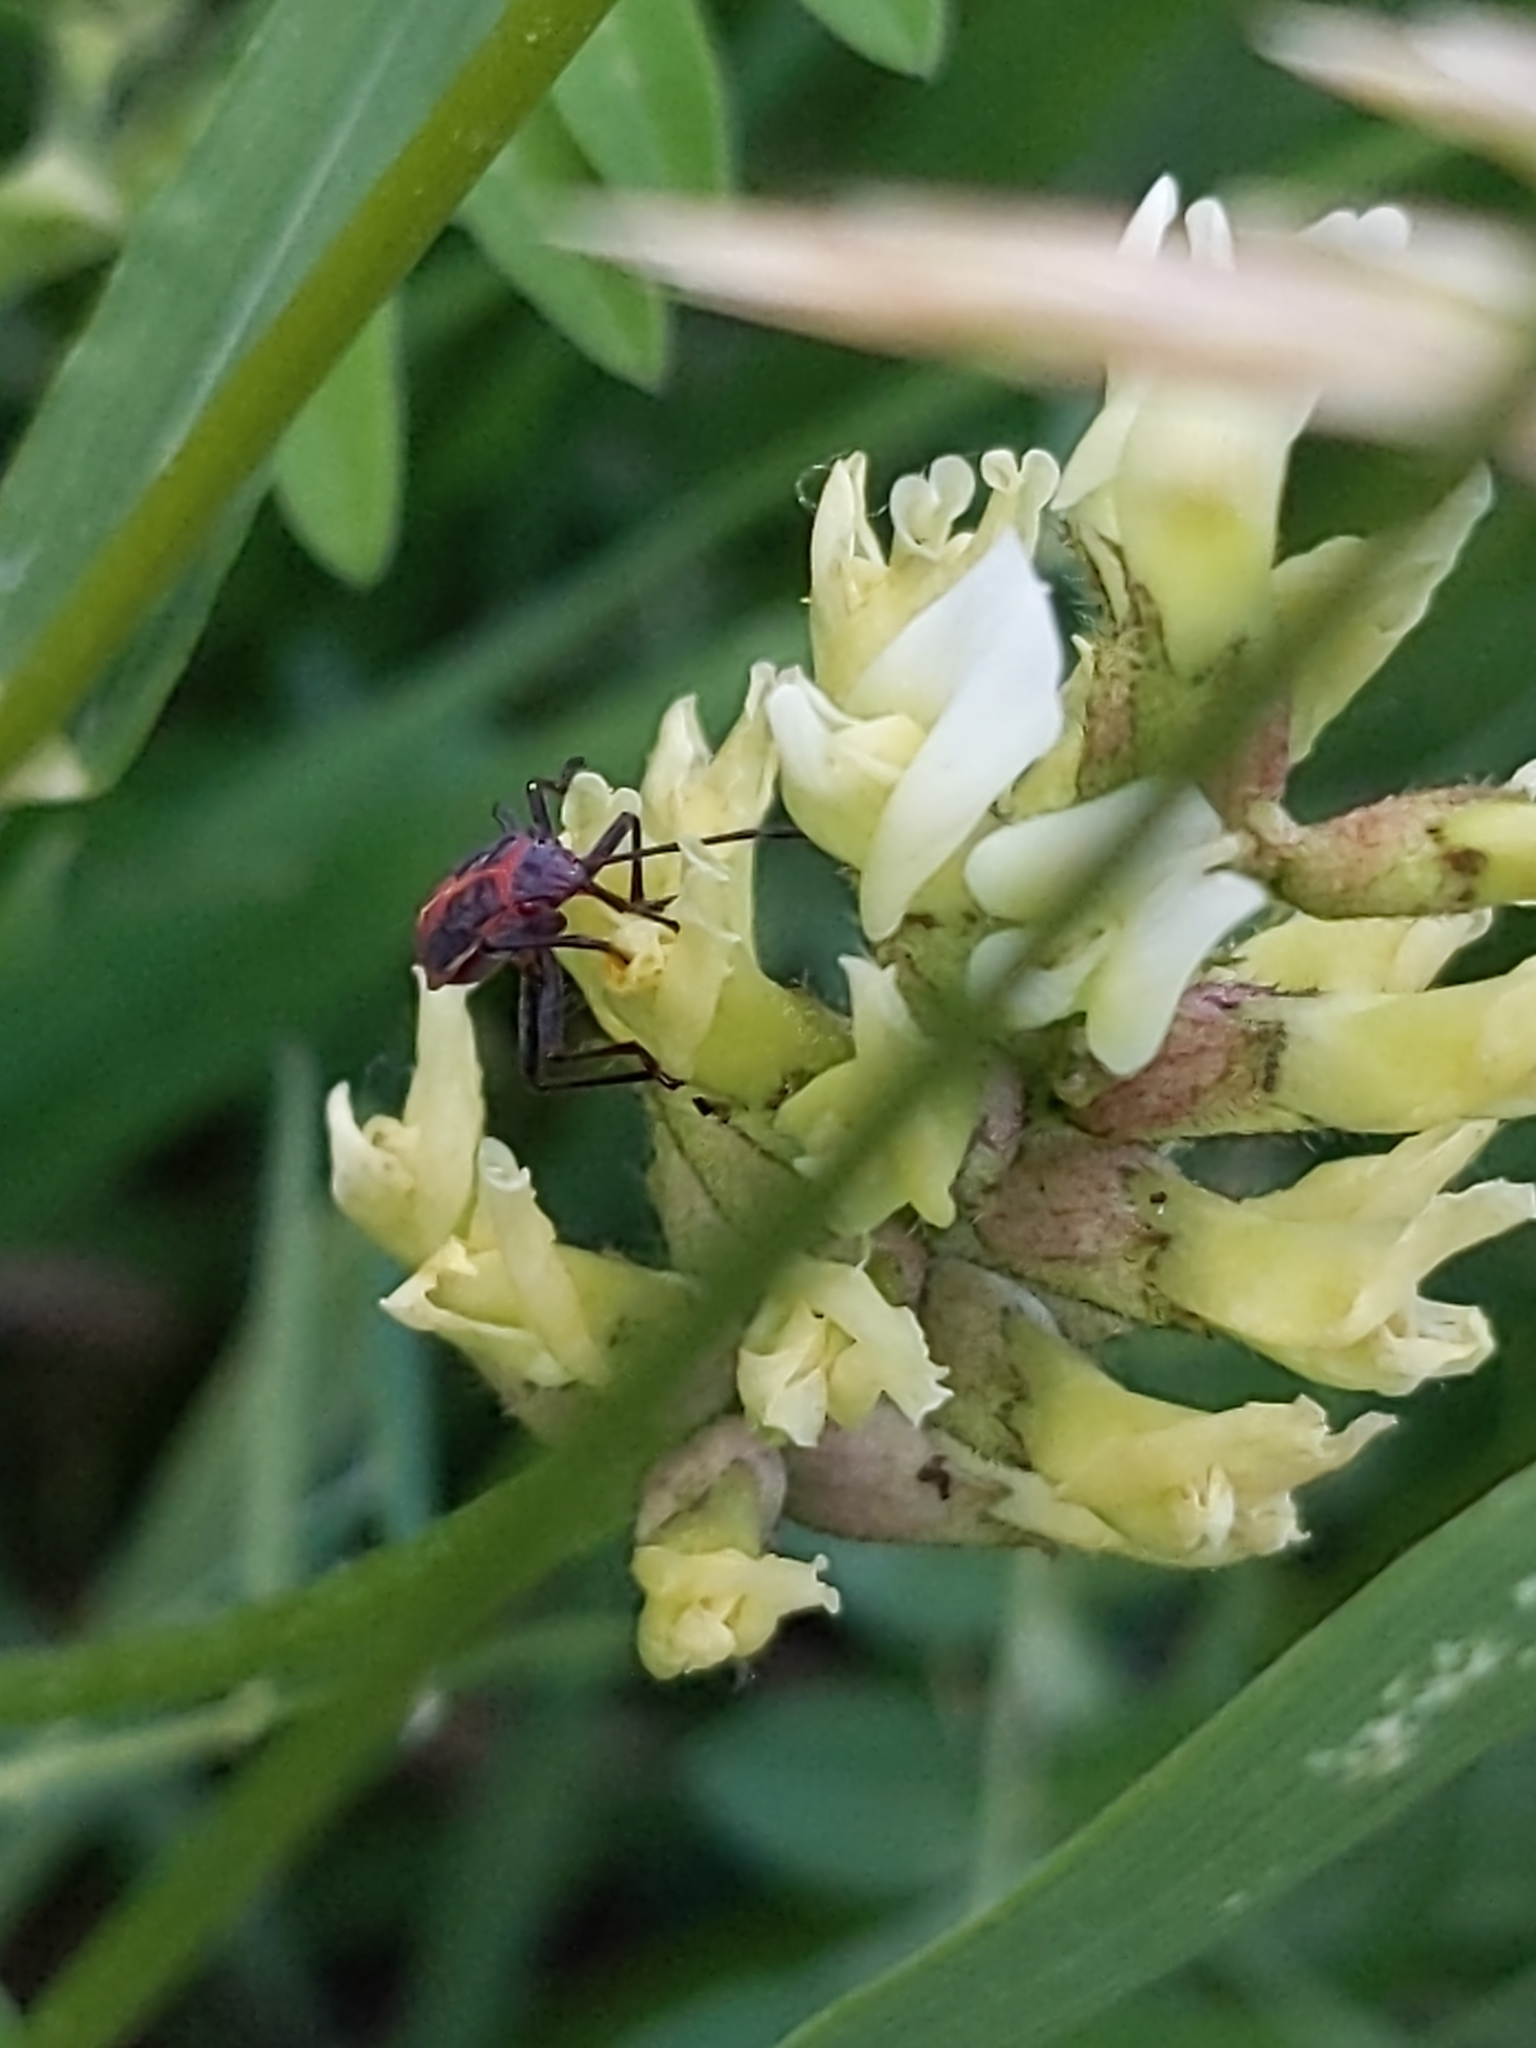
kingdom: Animalia
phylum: Arthropoda
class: Insecta
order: Hemiptera
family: Rhopalidae
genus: Boisea
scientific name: Boisea trivittata
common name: Boxelder bug
